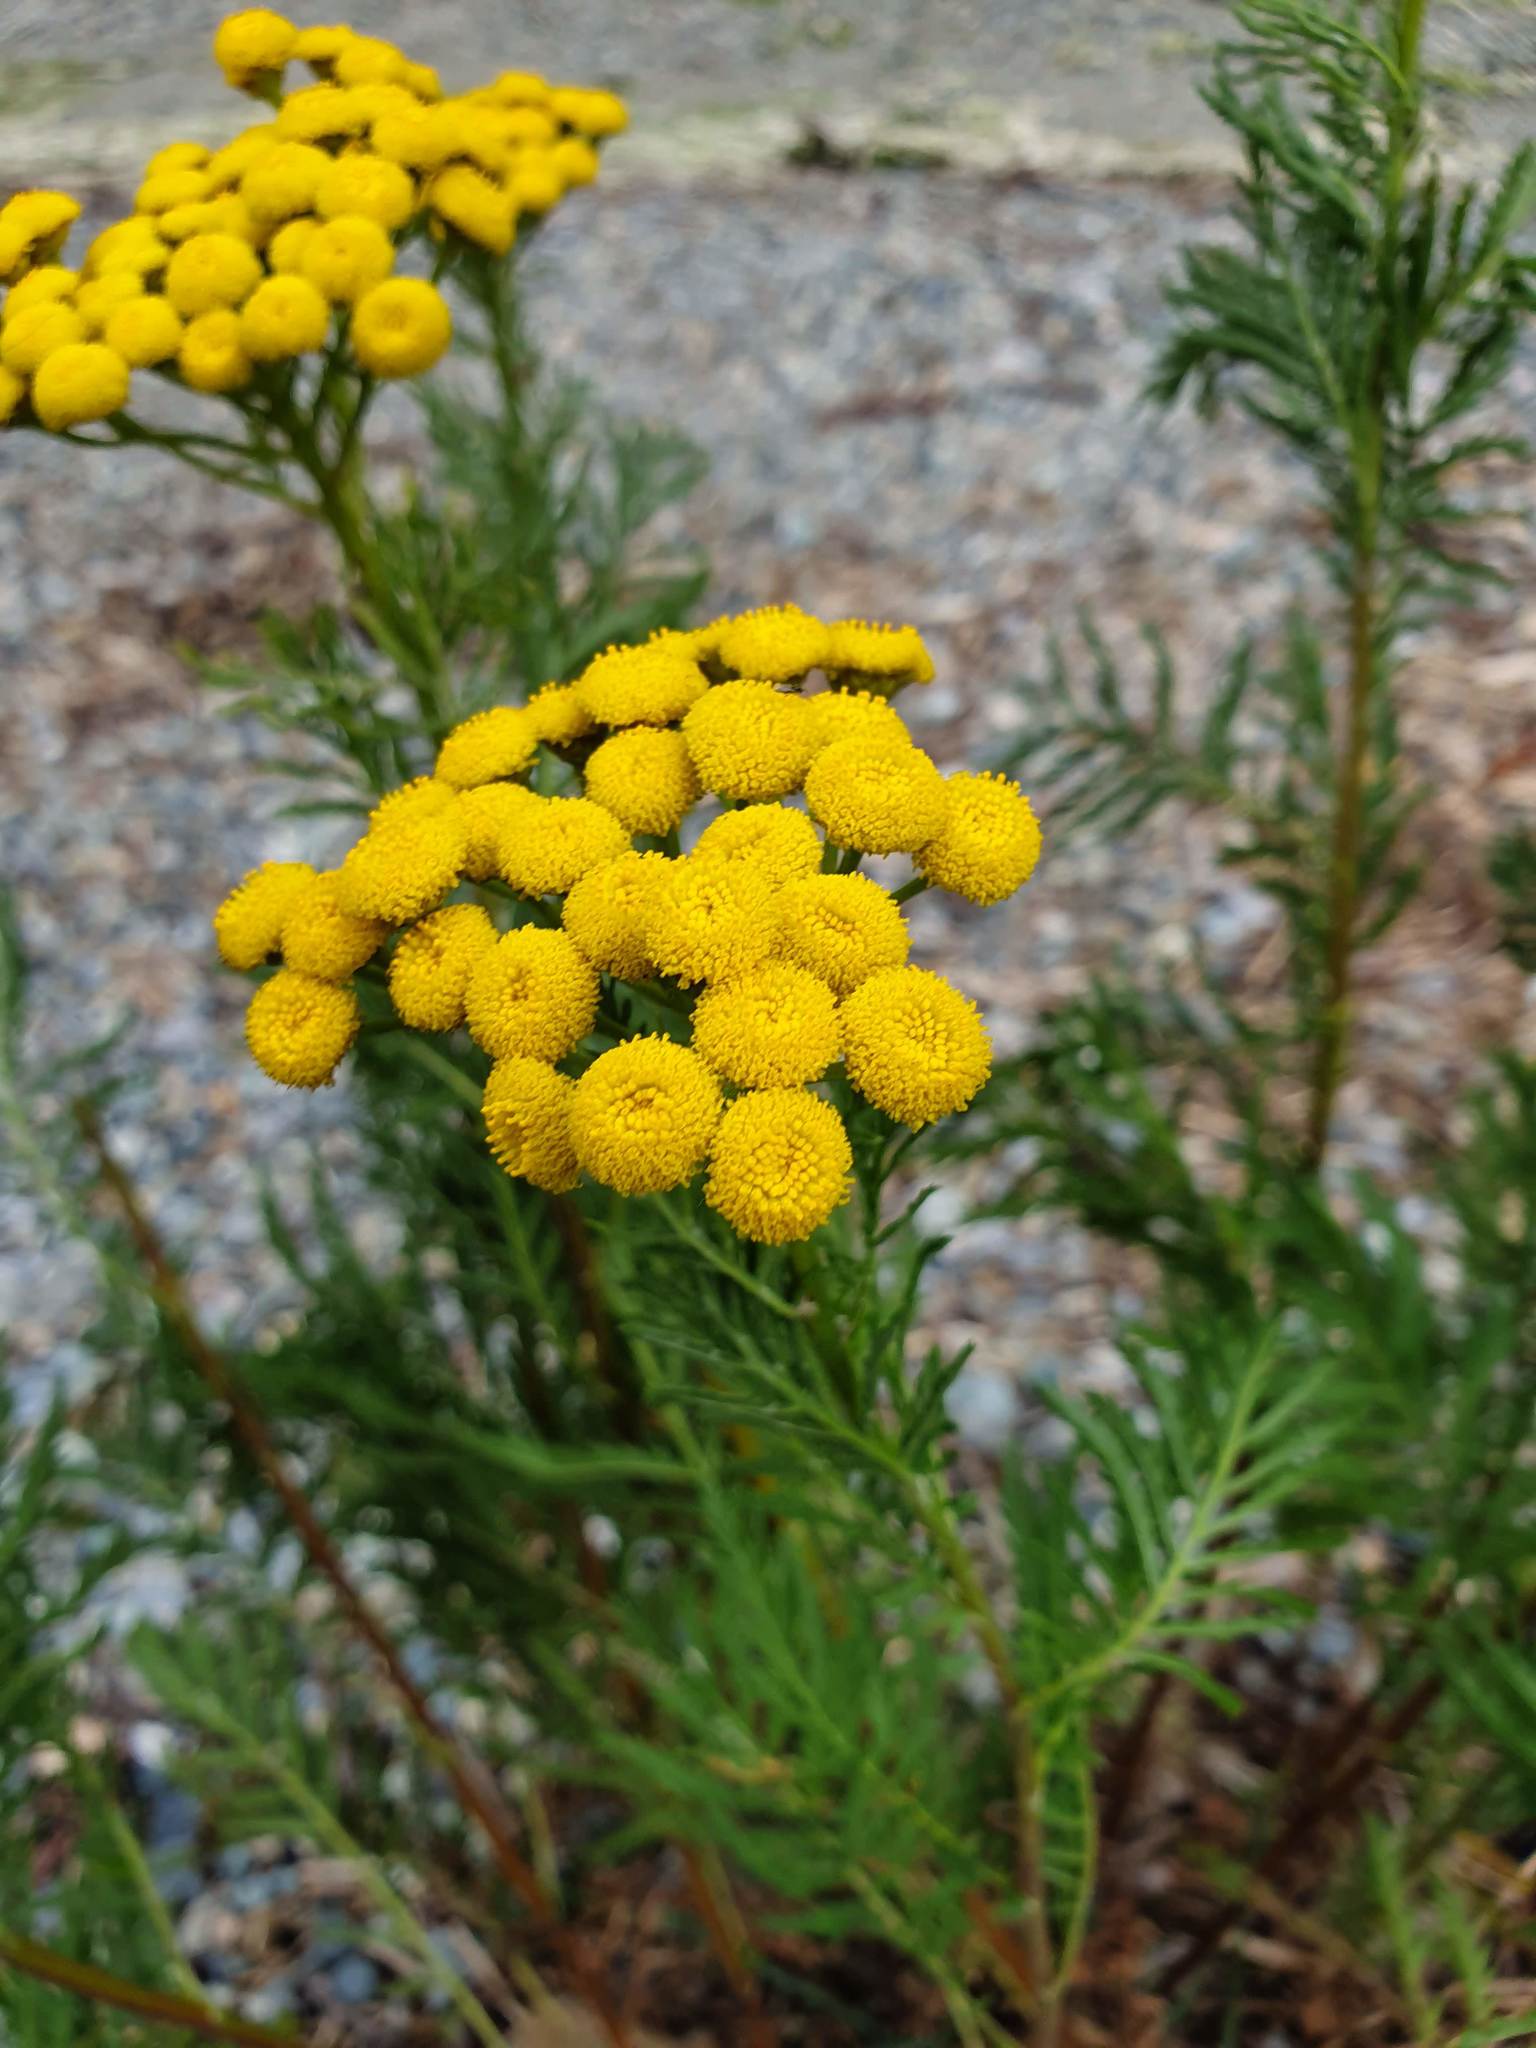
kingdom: Plantae
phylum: Tracheophyta
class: Magnoliopsida
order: Asterales
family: Asteraceae
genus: Tanacetum
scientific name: Tanacetum vulgare
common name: Common tansy
